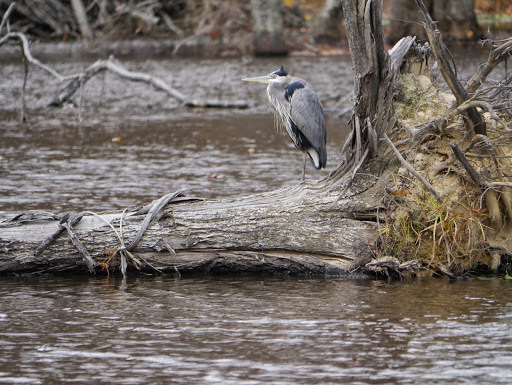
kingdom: Animalia
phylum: Chordata
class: Aves
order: Pelecaniformes
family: Ardeidae
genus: Ardea
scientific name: Ardea herodias
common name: Great blue heron
